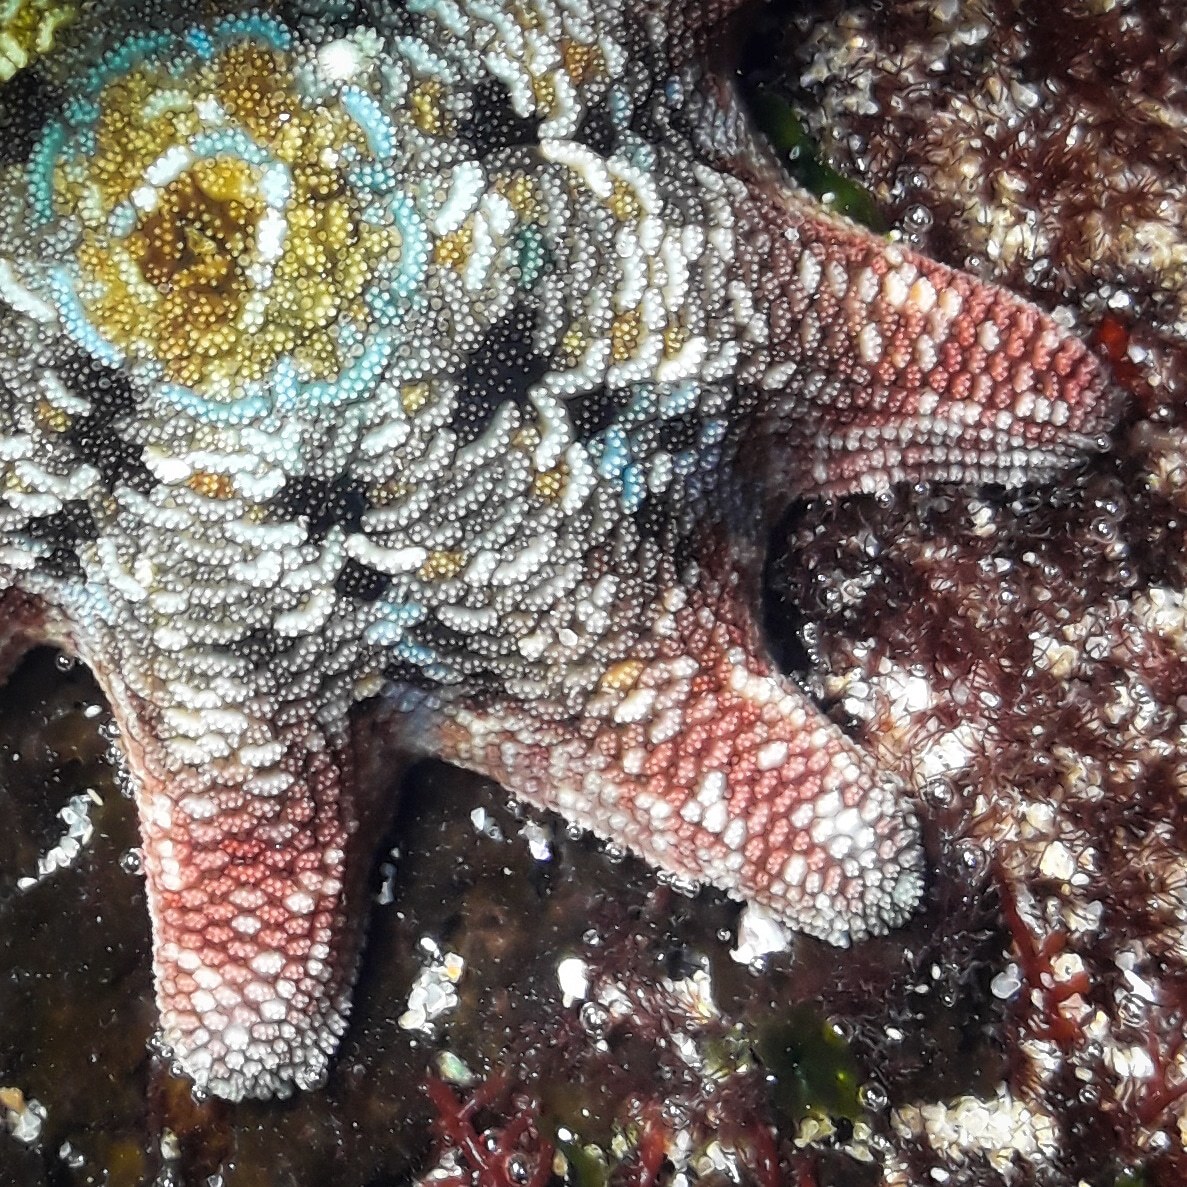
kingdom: Animalia
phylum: Echinodermata
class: Asteroidea
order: Valvatida
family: Asterinidae
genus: Meridiastra
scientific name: Meridiastra calcar
